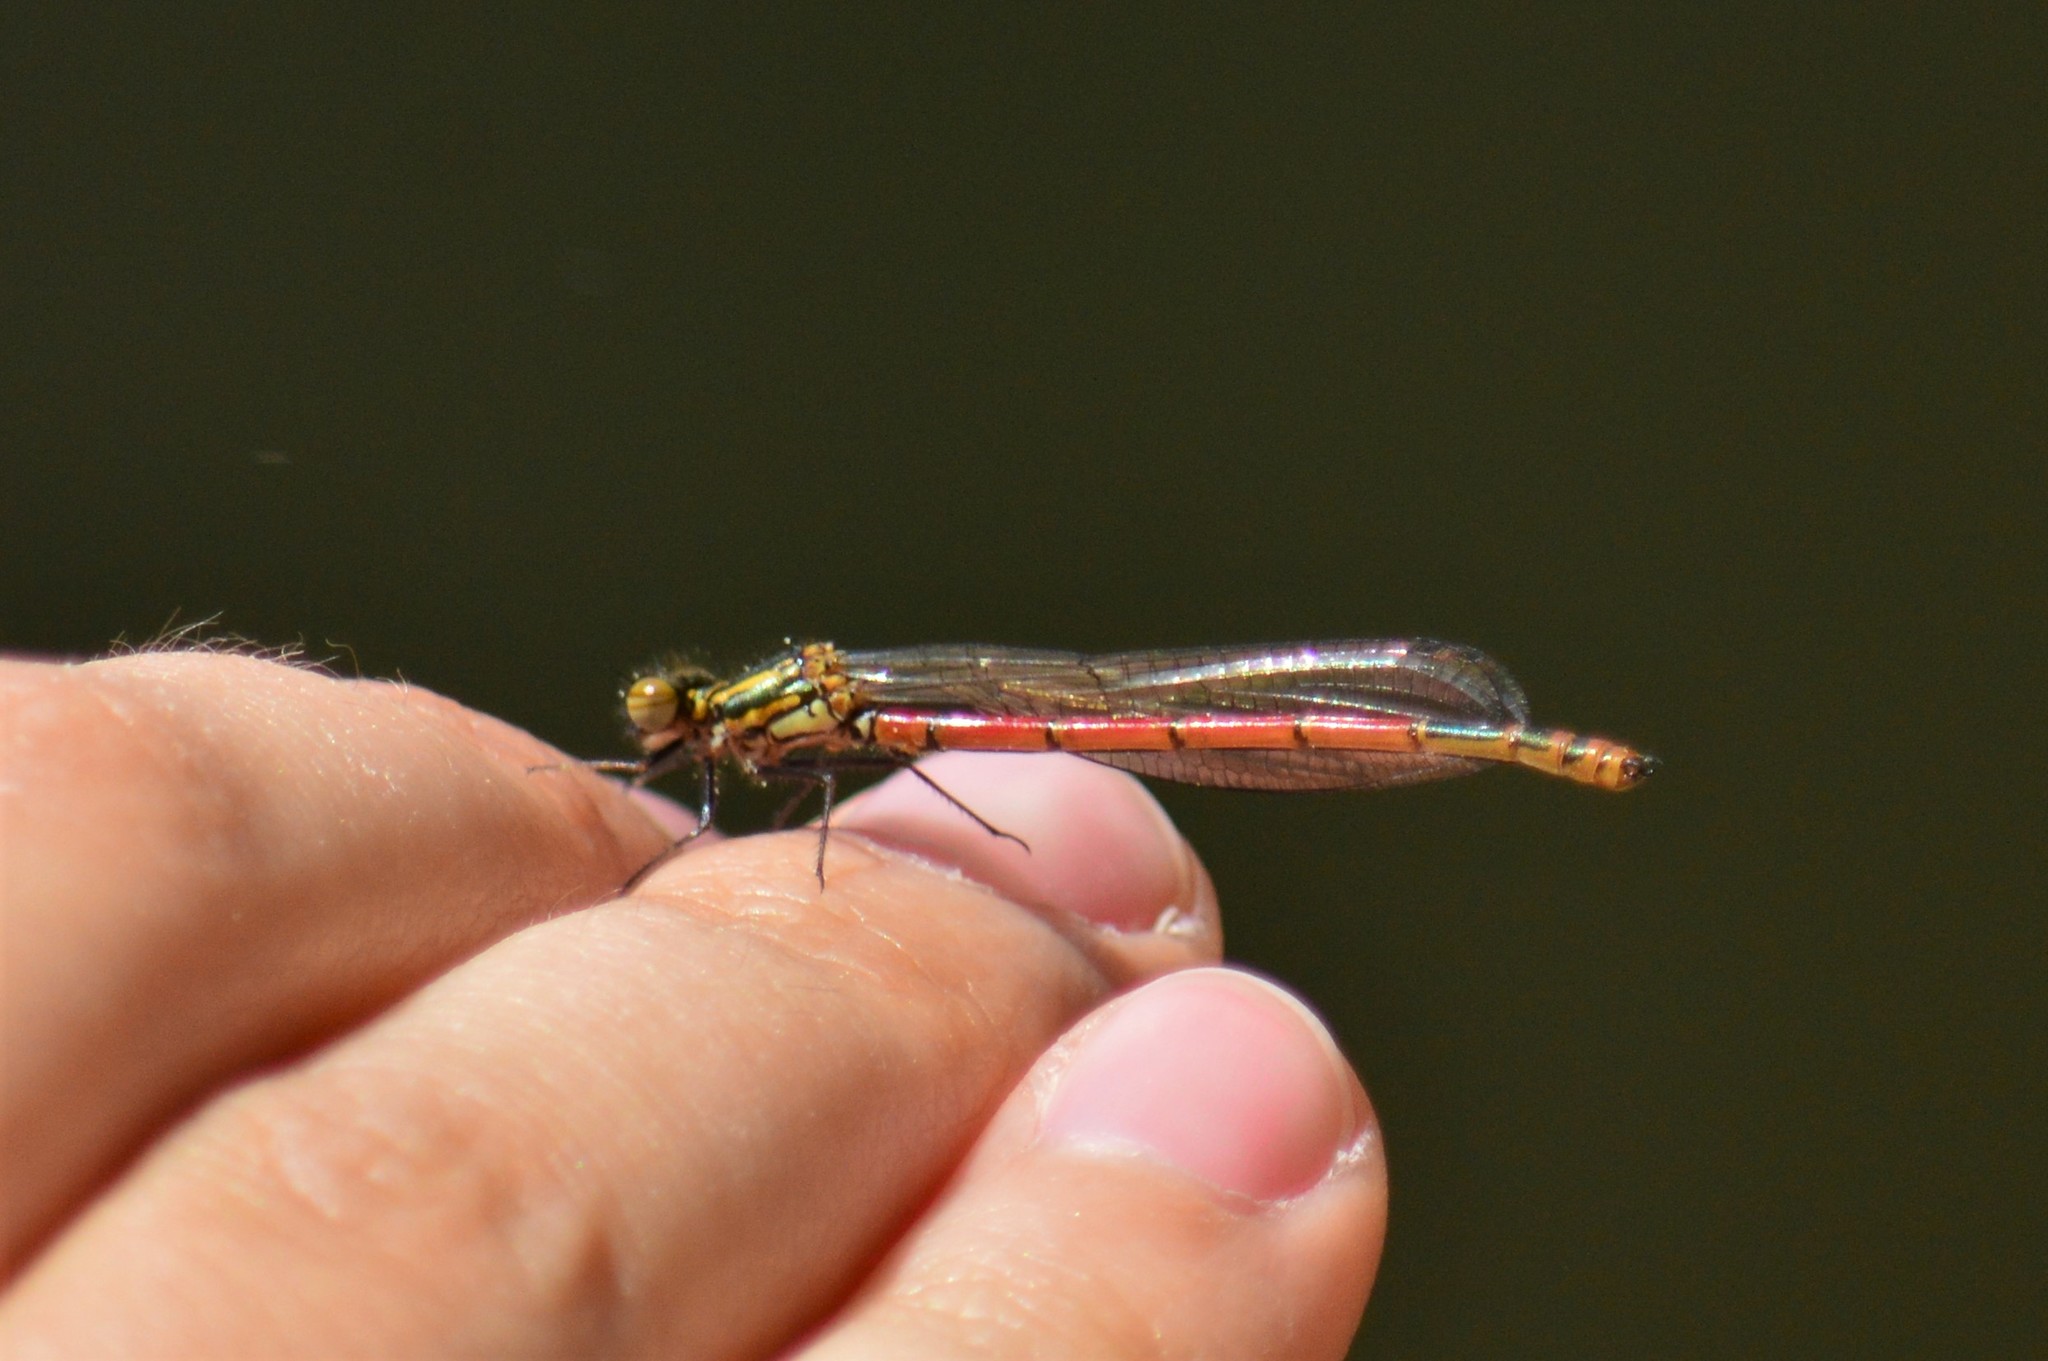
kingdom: Animalia
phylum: Arthropoda
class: Insecta
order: Odonata
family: Coenagrionidae
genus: Pyrrhosoma
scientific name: Pyrrhosoma nymphula
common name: Large red damsel
